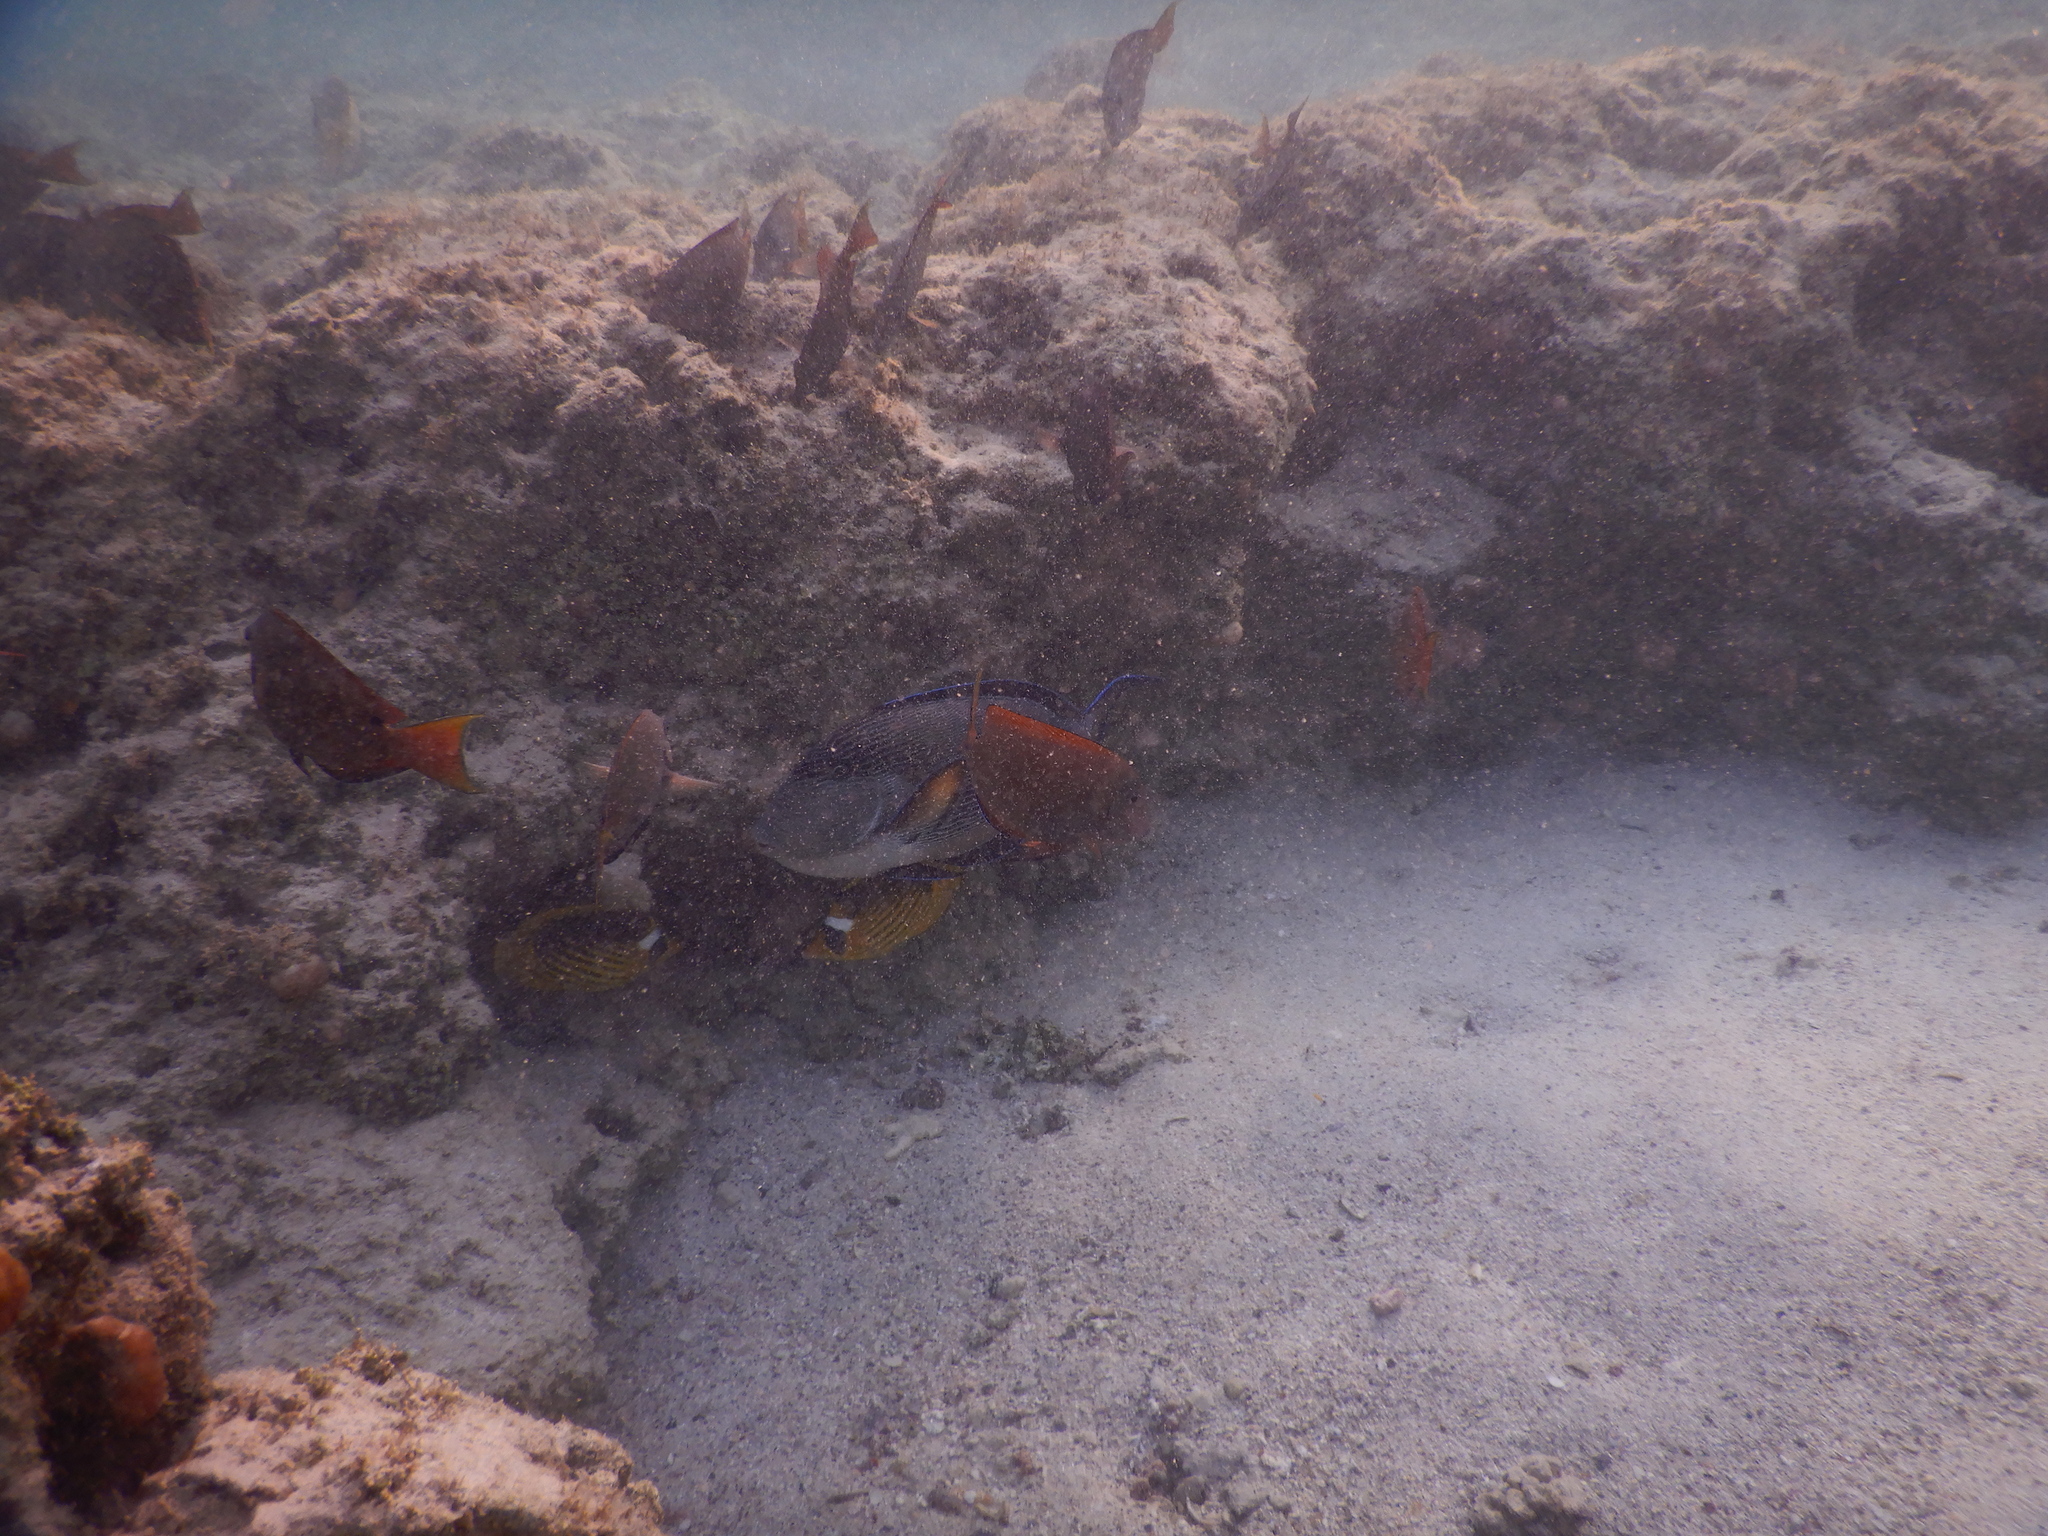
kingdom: Animalia
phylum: Chordata
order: Perciformes
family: Acanthuridae
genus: Acanthurus
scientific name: Acanthurus sohal
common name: Red sea surgeonfish
